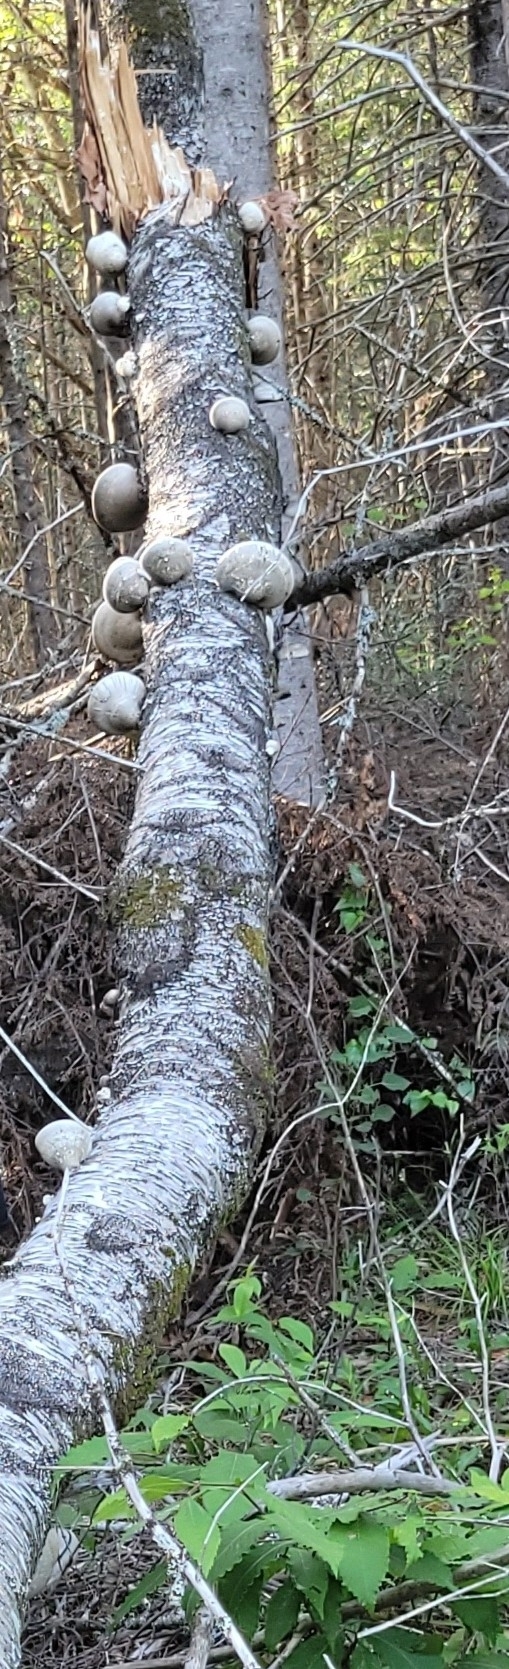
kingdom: Fungi
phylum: Basidiomycota
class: Agaricomycetes
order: Polyporales
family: Fomitopsidaceae
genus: Fomitopsis
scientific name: Fomitopsis betulina
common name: Birch polypore
